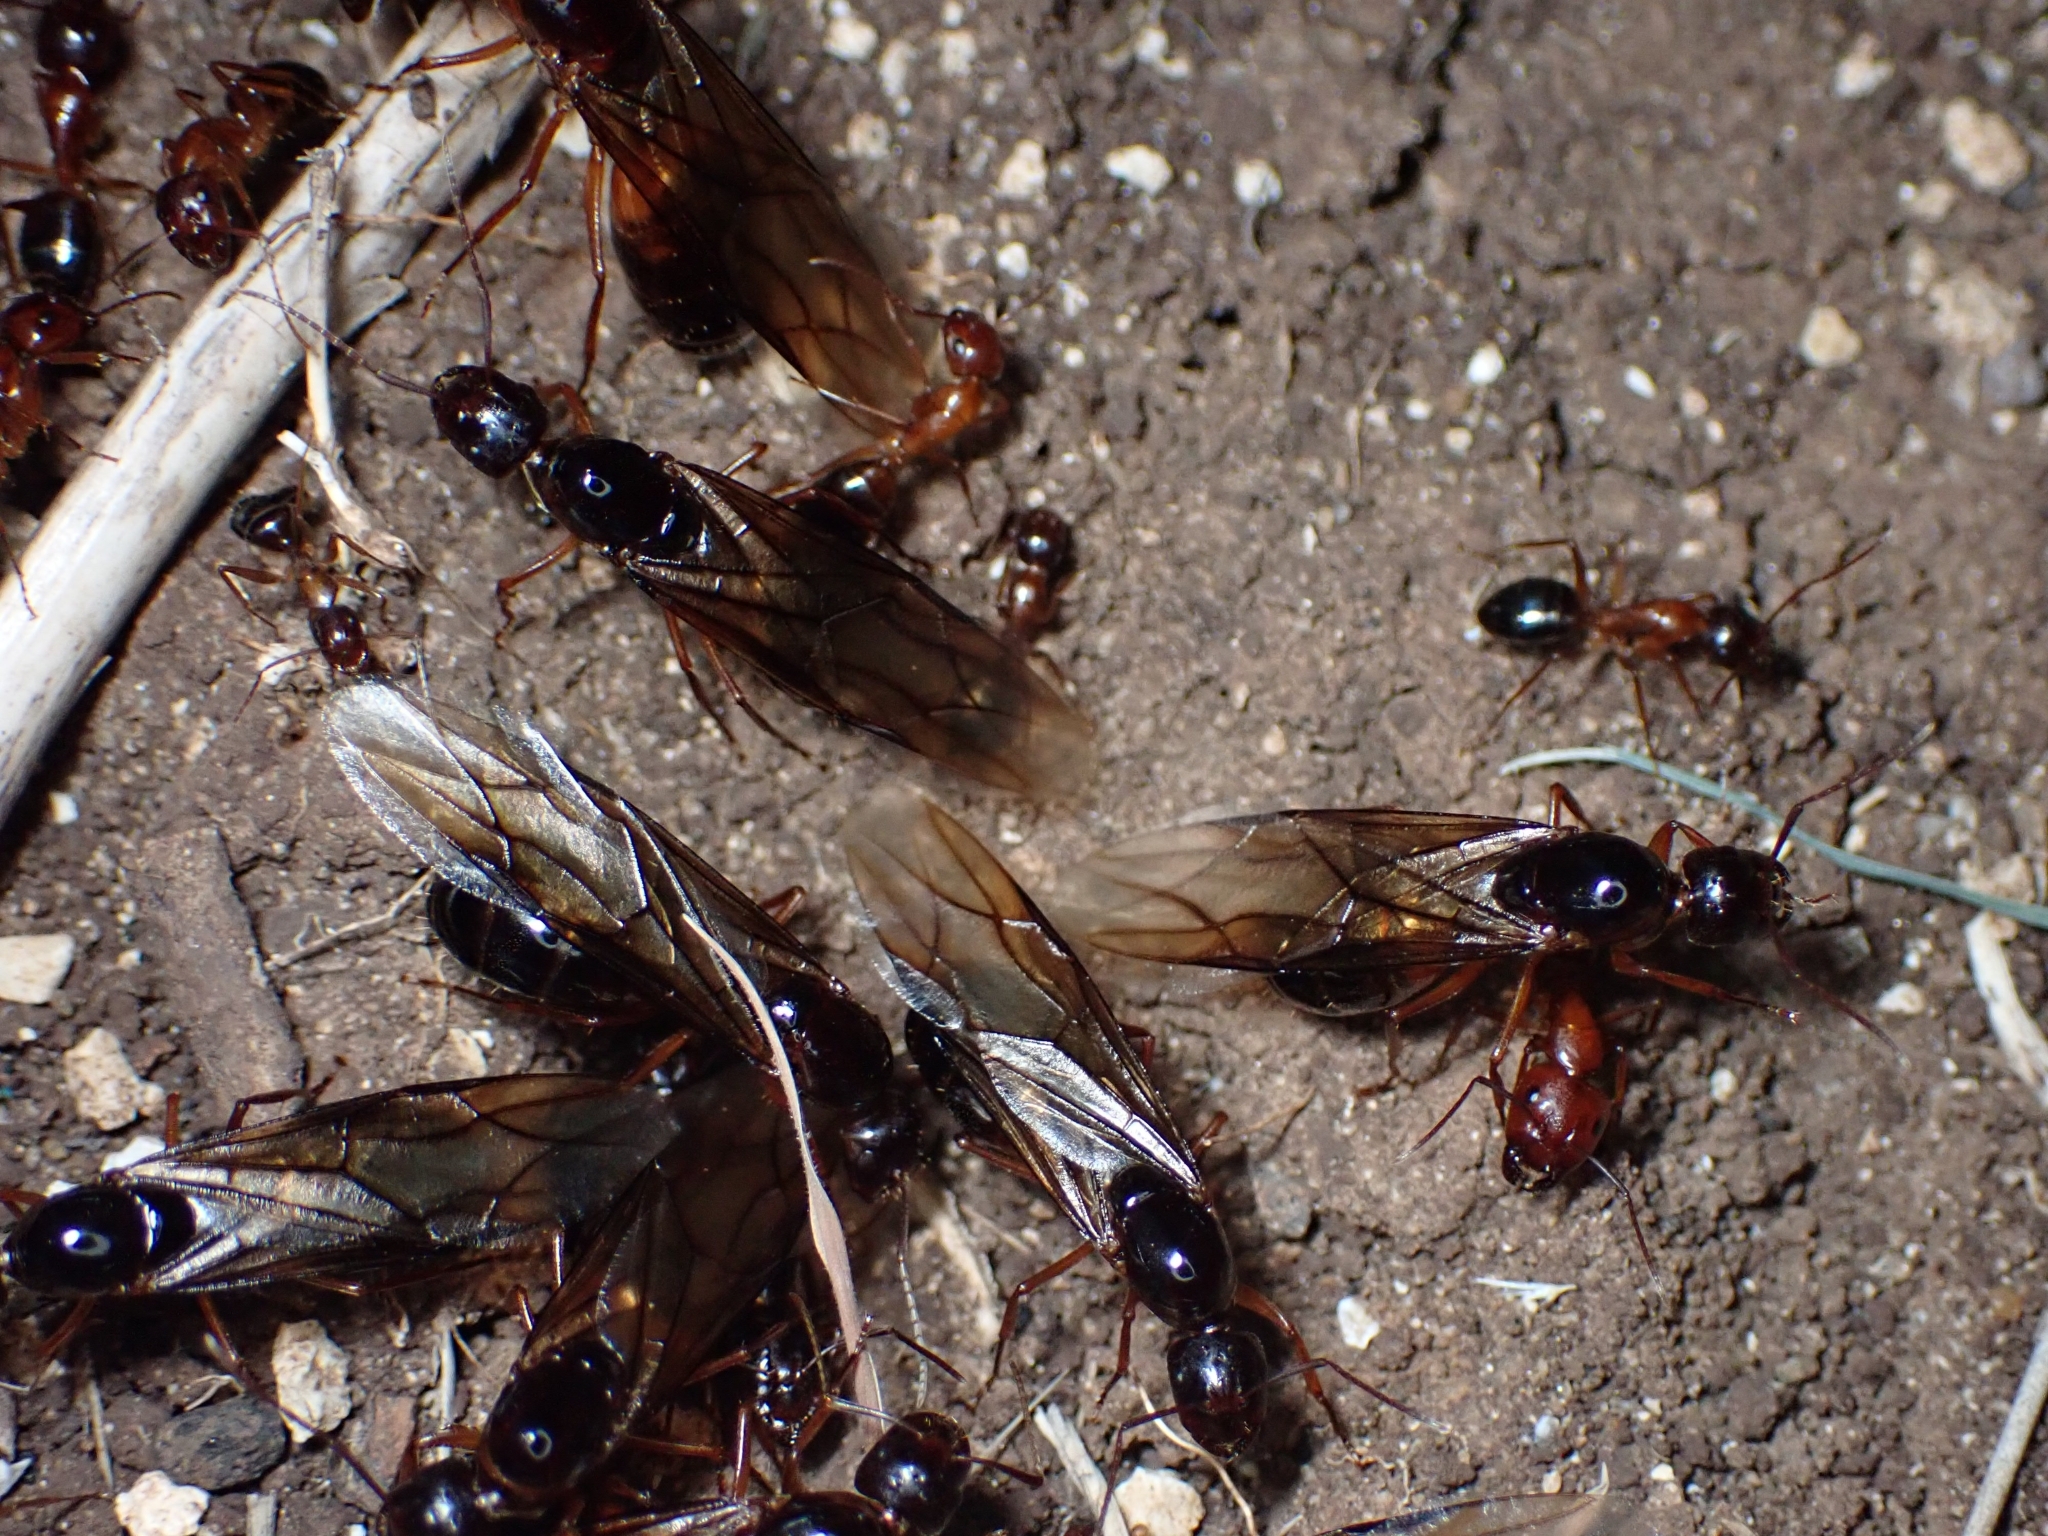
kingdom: Animalia
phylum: Arthropoda
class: Insecta
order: Hymenoptera
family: Formicidae
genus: Camponotus
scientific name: Camponotus nylanderi
